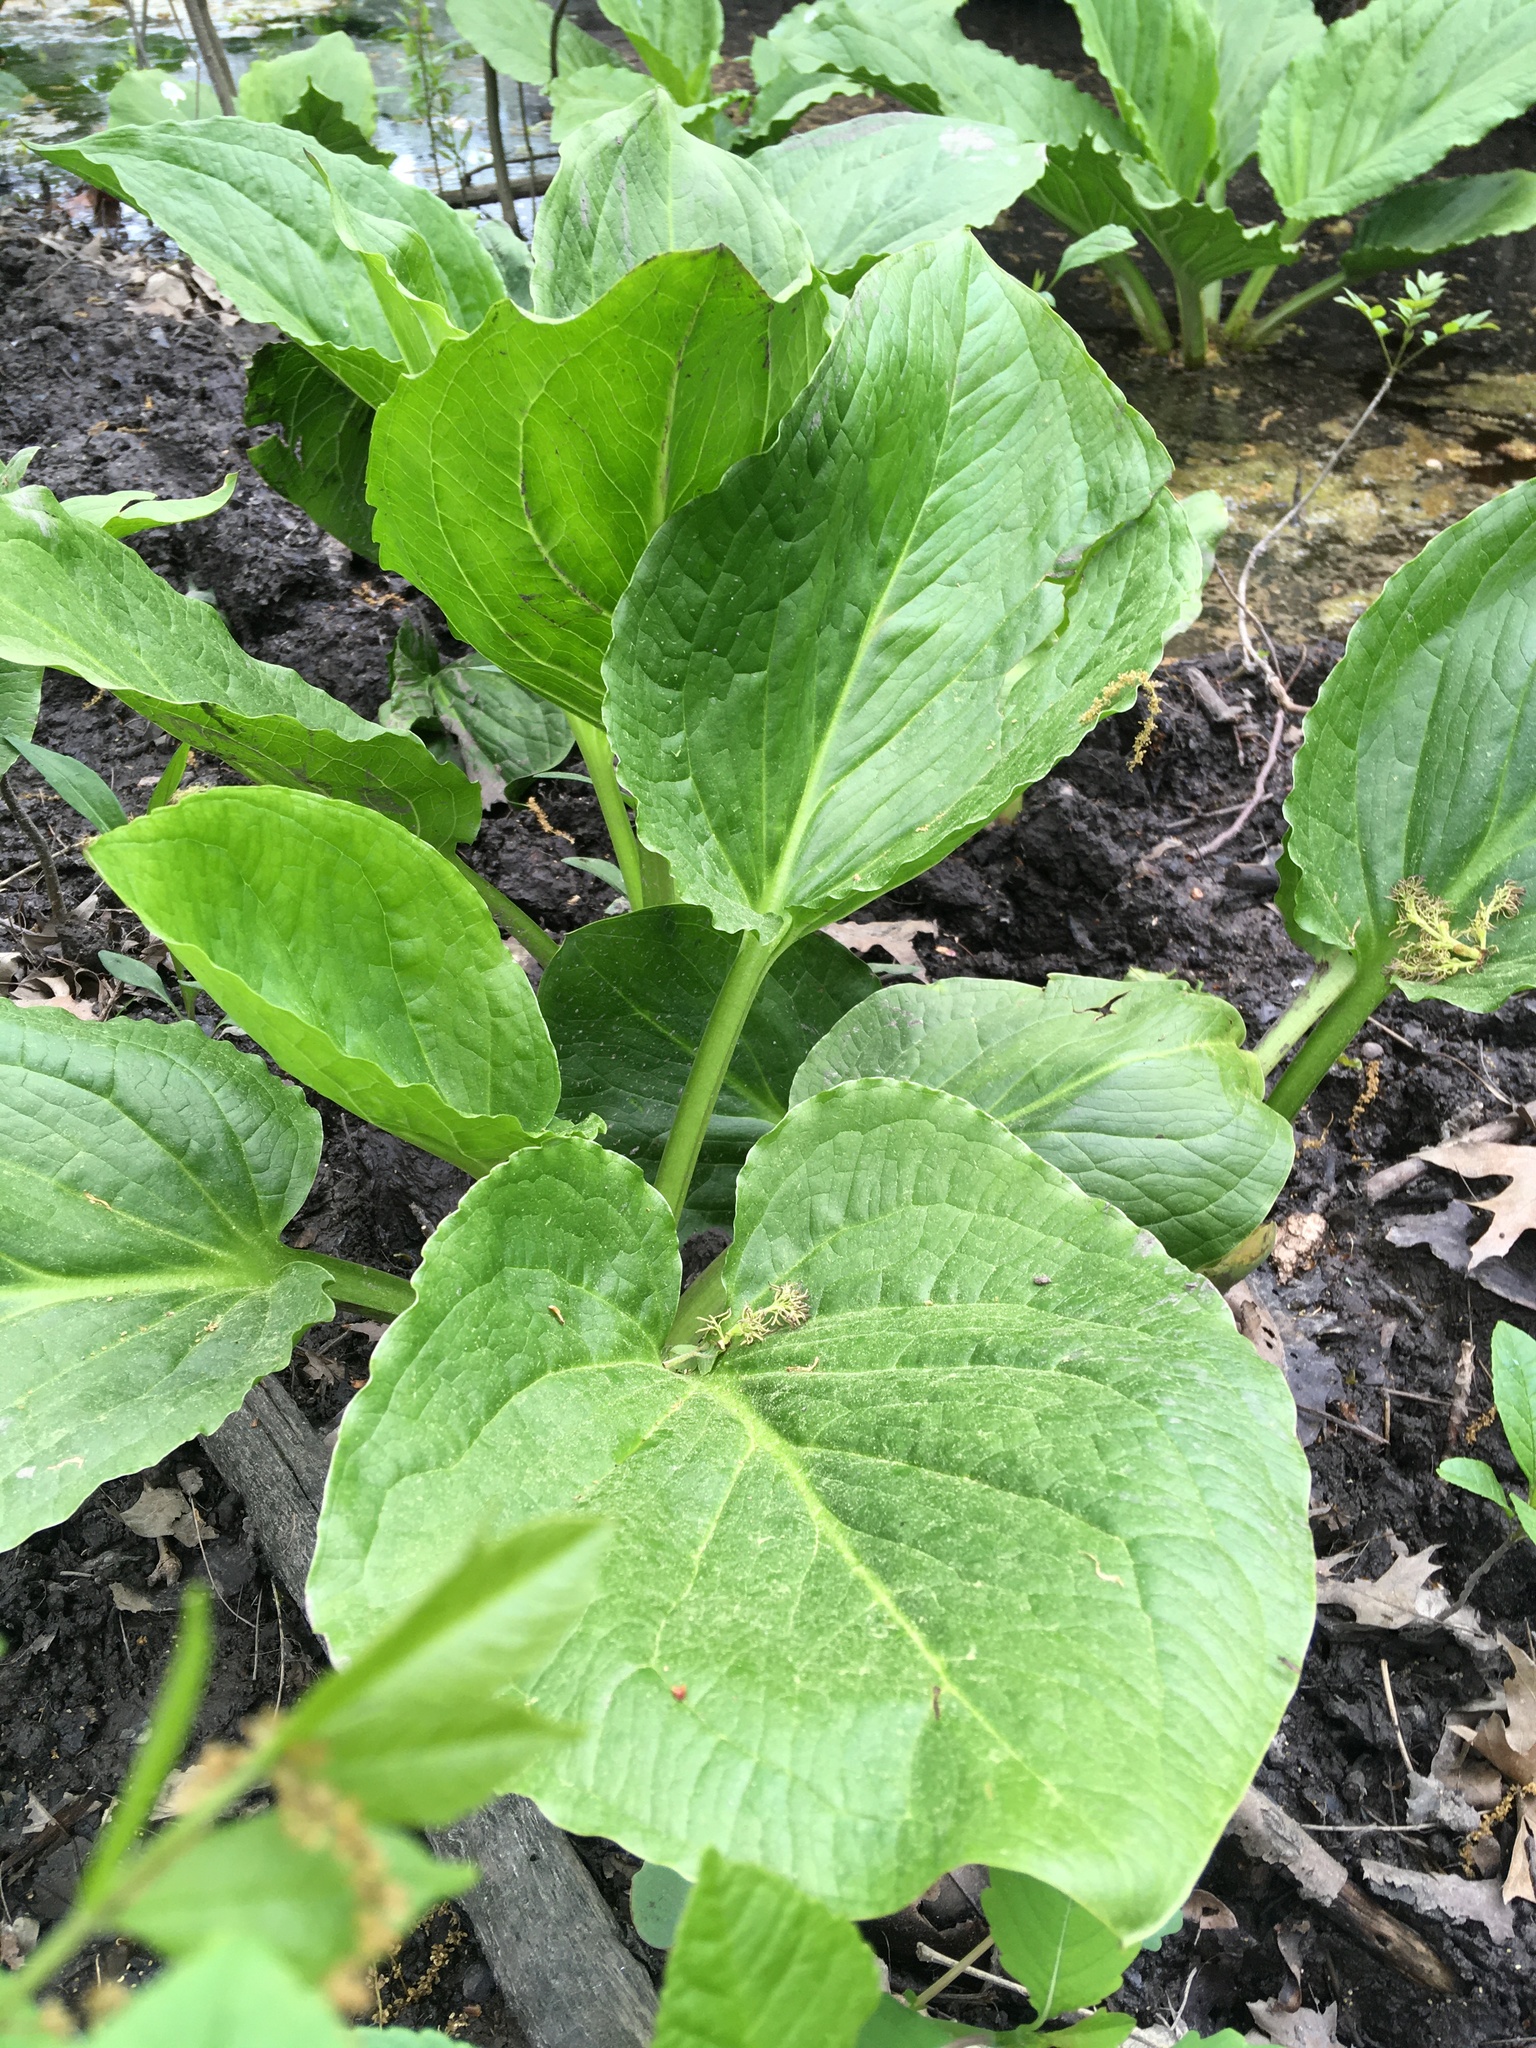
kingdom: Plantae
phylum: Tracheophyta
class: Liliopsida
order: Alismatales
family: Araceae
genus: Symplocarpus
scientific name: Symplocarpus foetidus
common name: Eastern skunk cabbage
